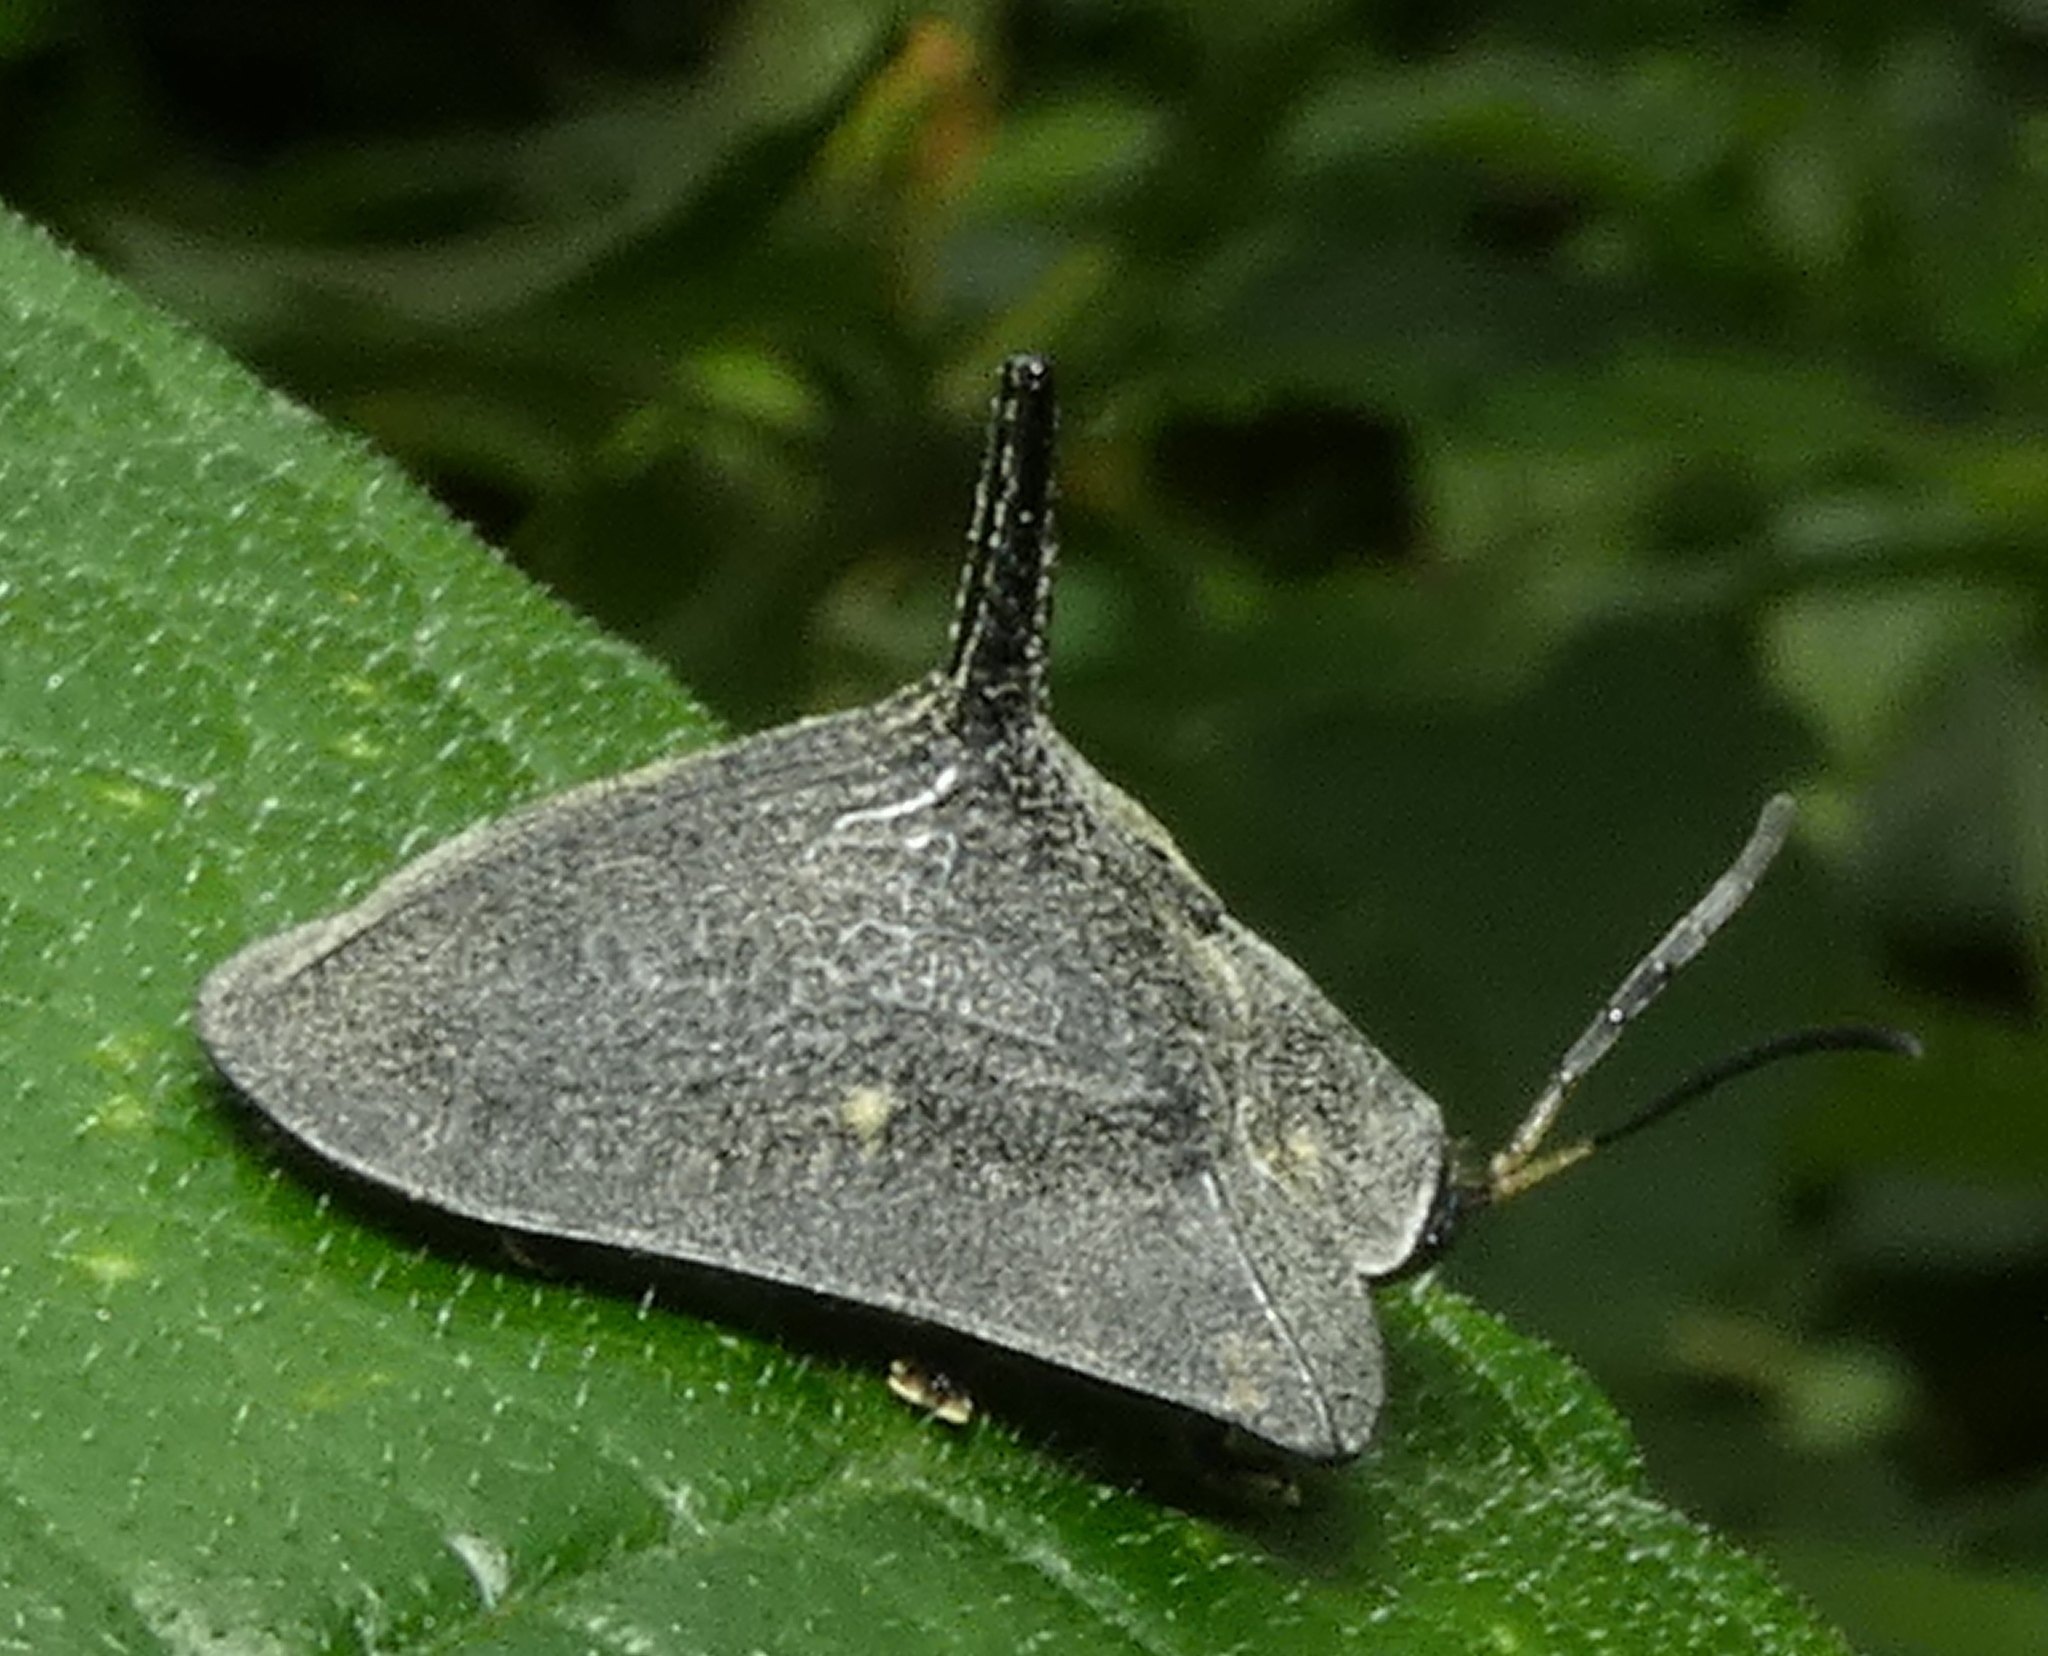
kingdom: Animalia
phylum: Arthropoda
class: Insecta
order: Coleoptera
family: Chrysomelidae
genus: Dorynota
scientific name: Dorynota bidens
